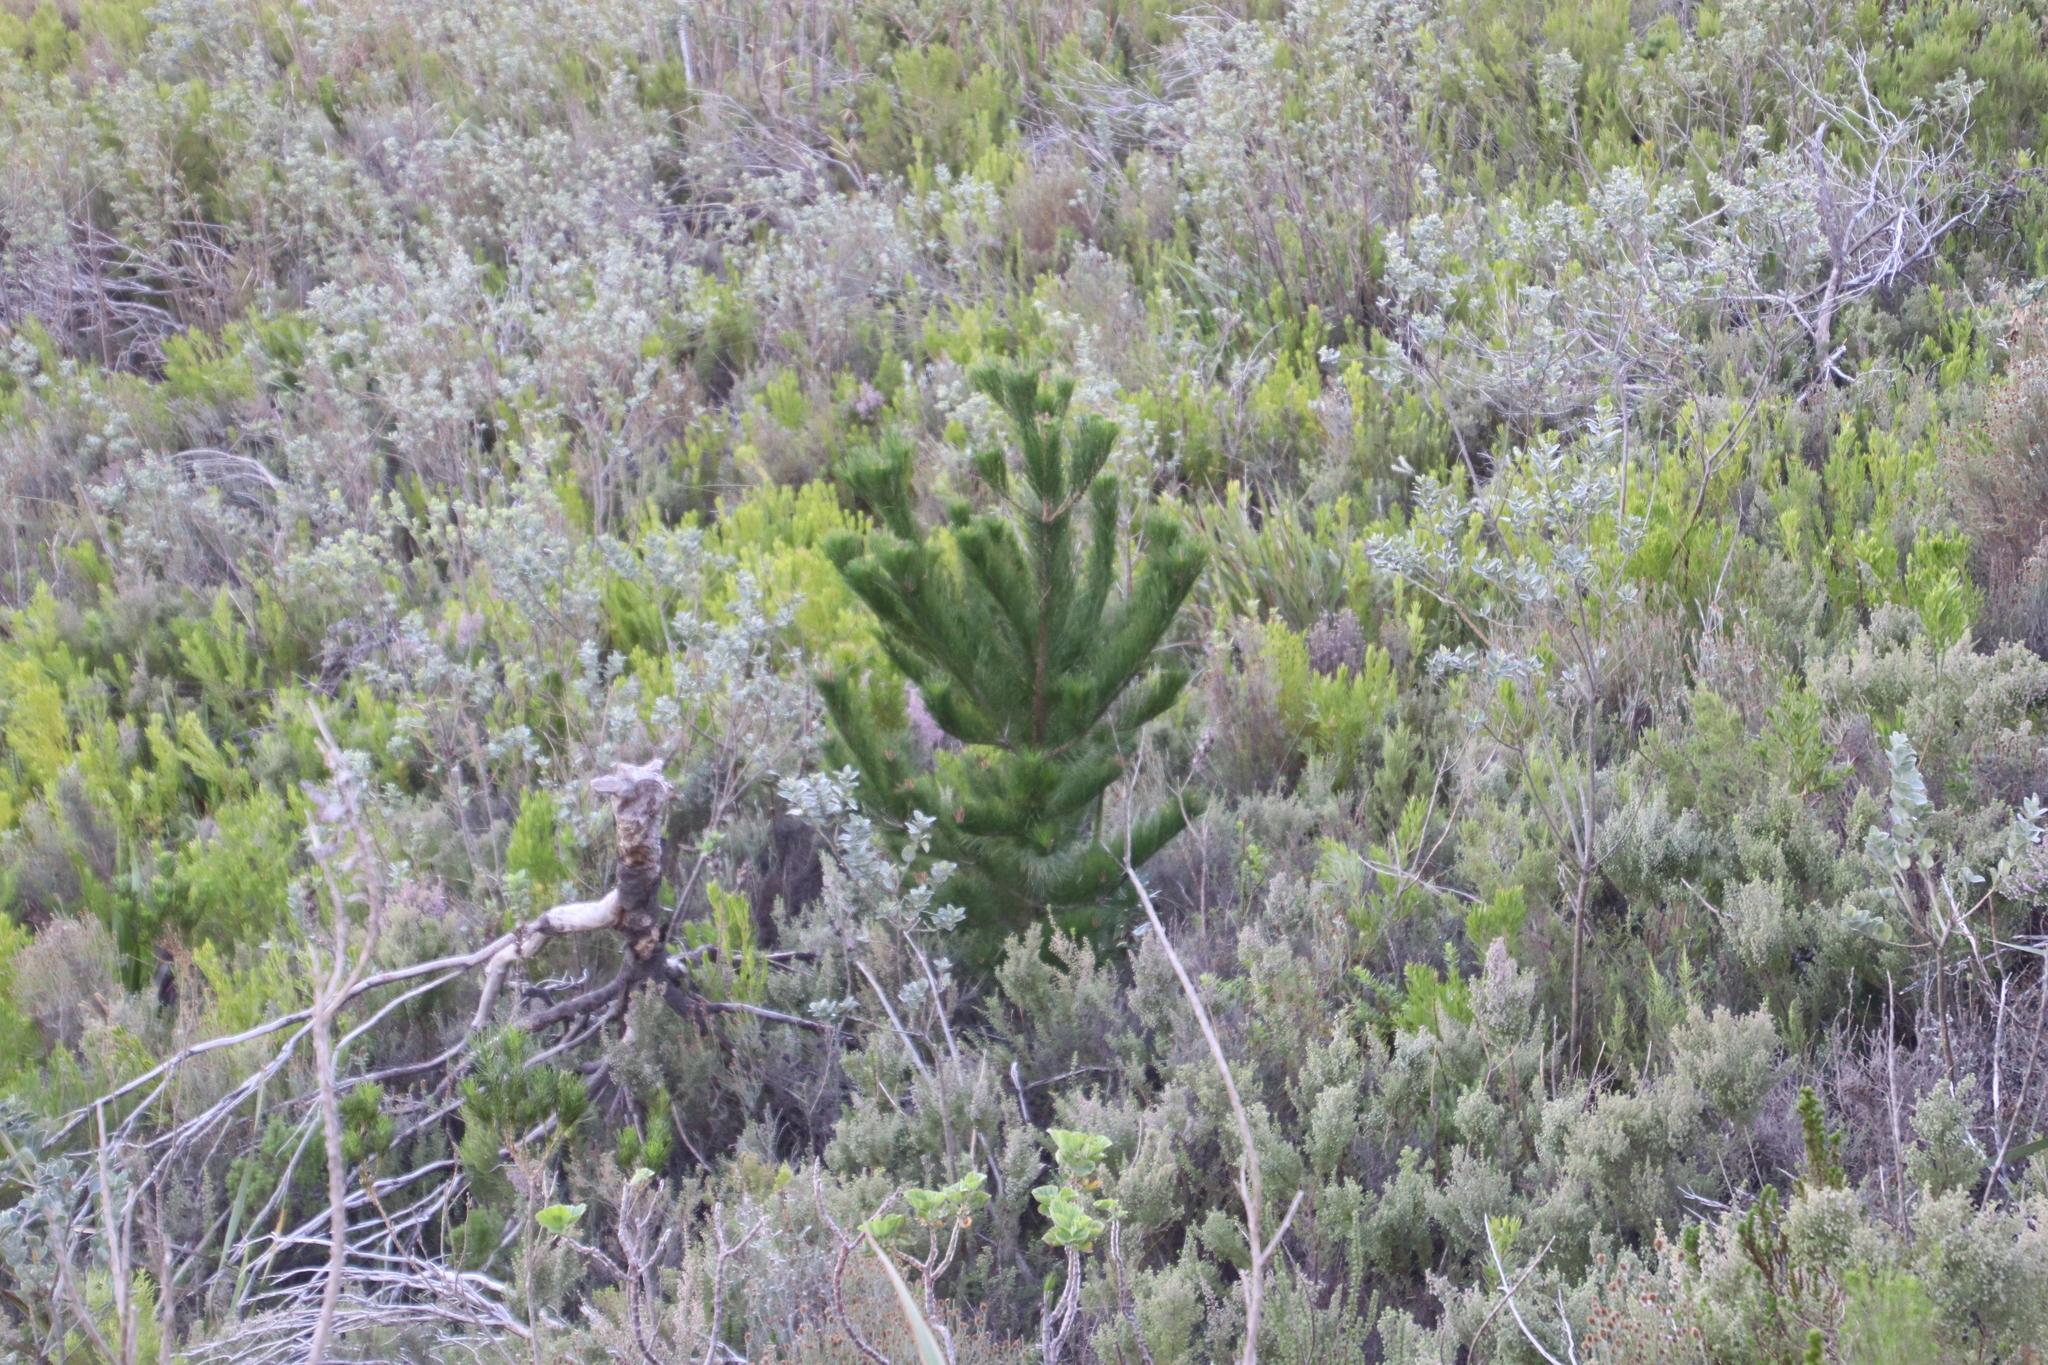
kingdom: Plantae
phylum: Tracheophyta
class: Pinopsida
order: Pinales
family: Pinaceae
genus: Pinus
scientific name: Pinus radiata
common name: Monterey pine
